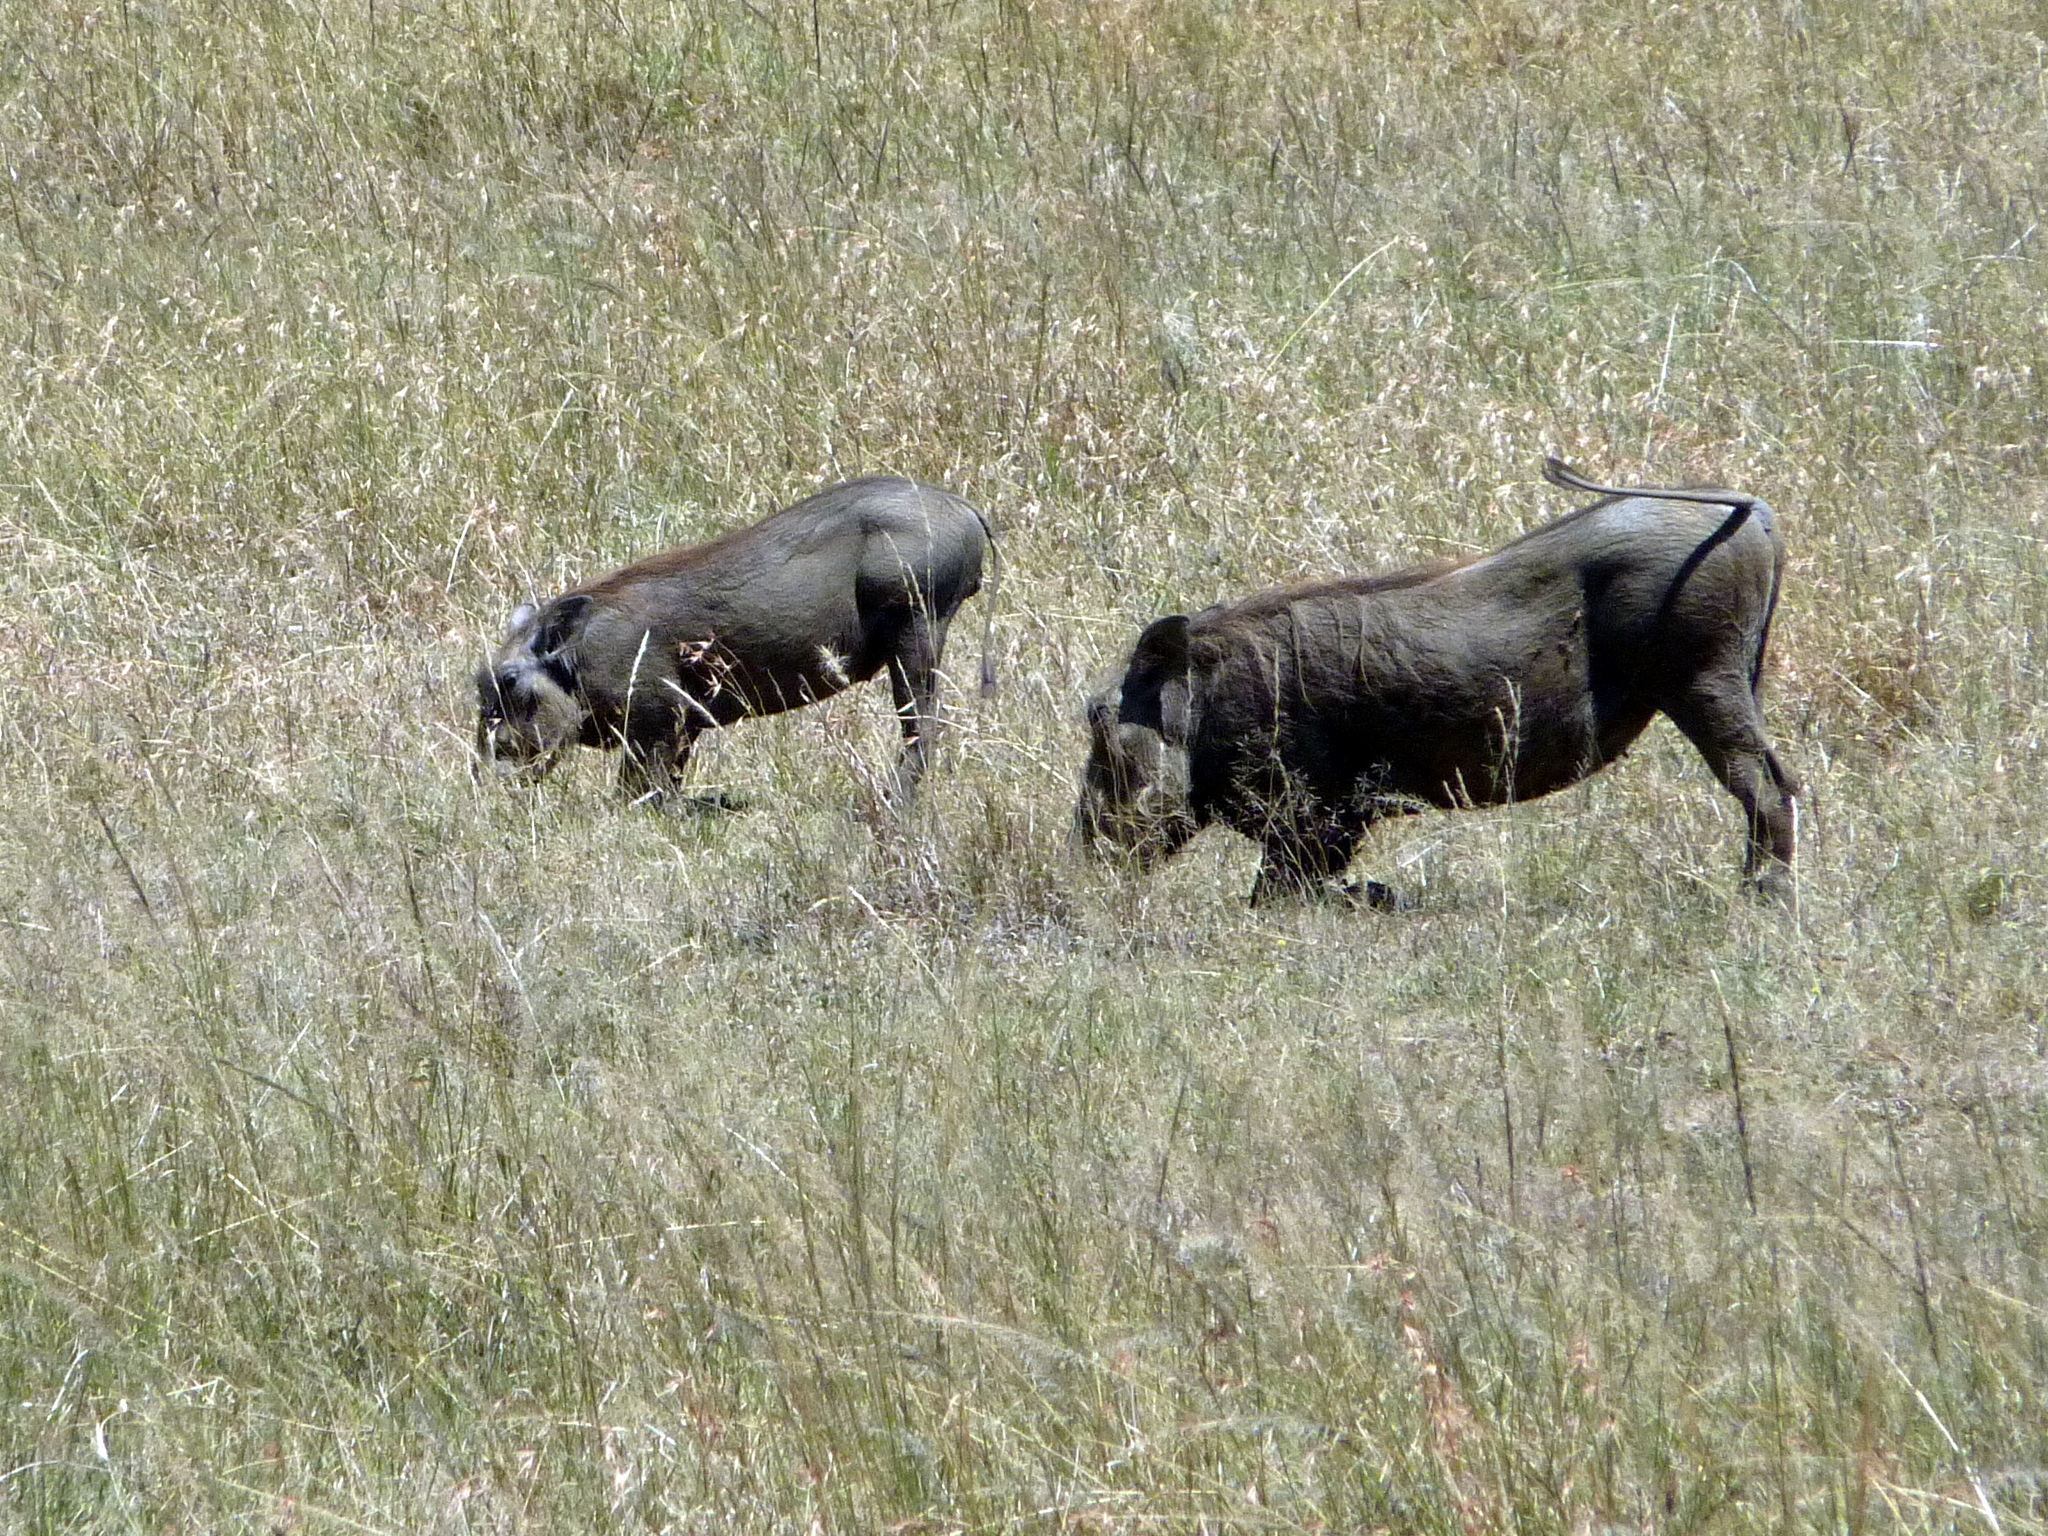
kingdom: Animalia
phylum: Chordata
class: Mammalia
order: Artiodactyla
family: Suidae
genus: Phacochoerus
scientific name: Phacochoerus africanus
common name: Common warthog
